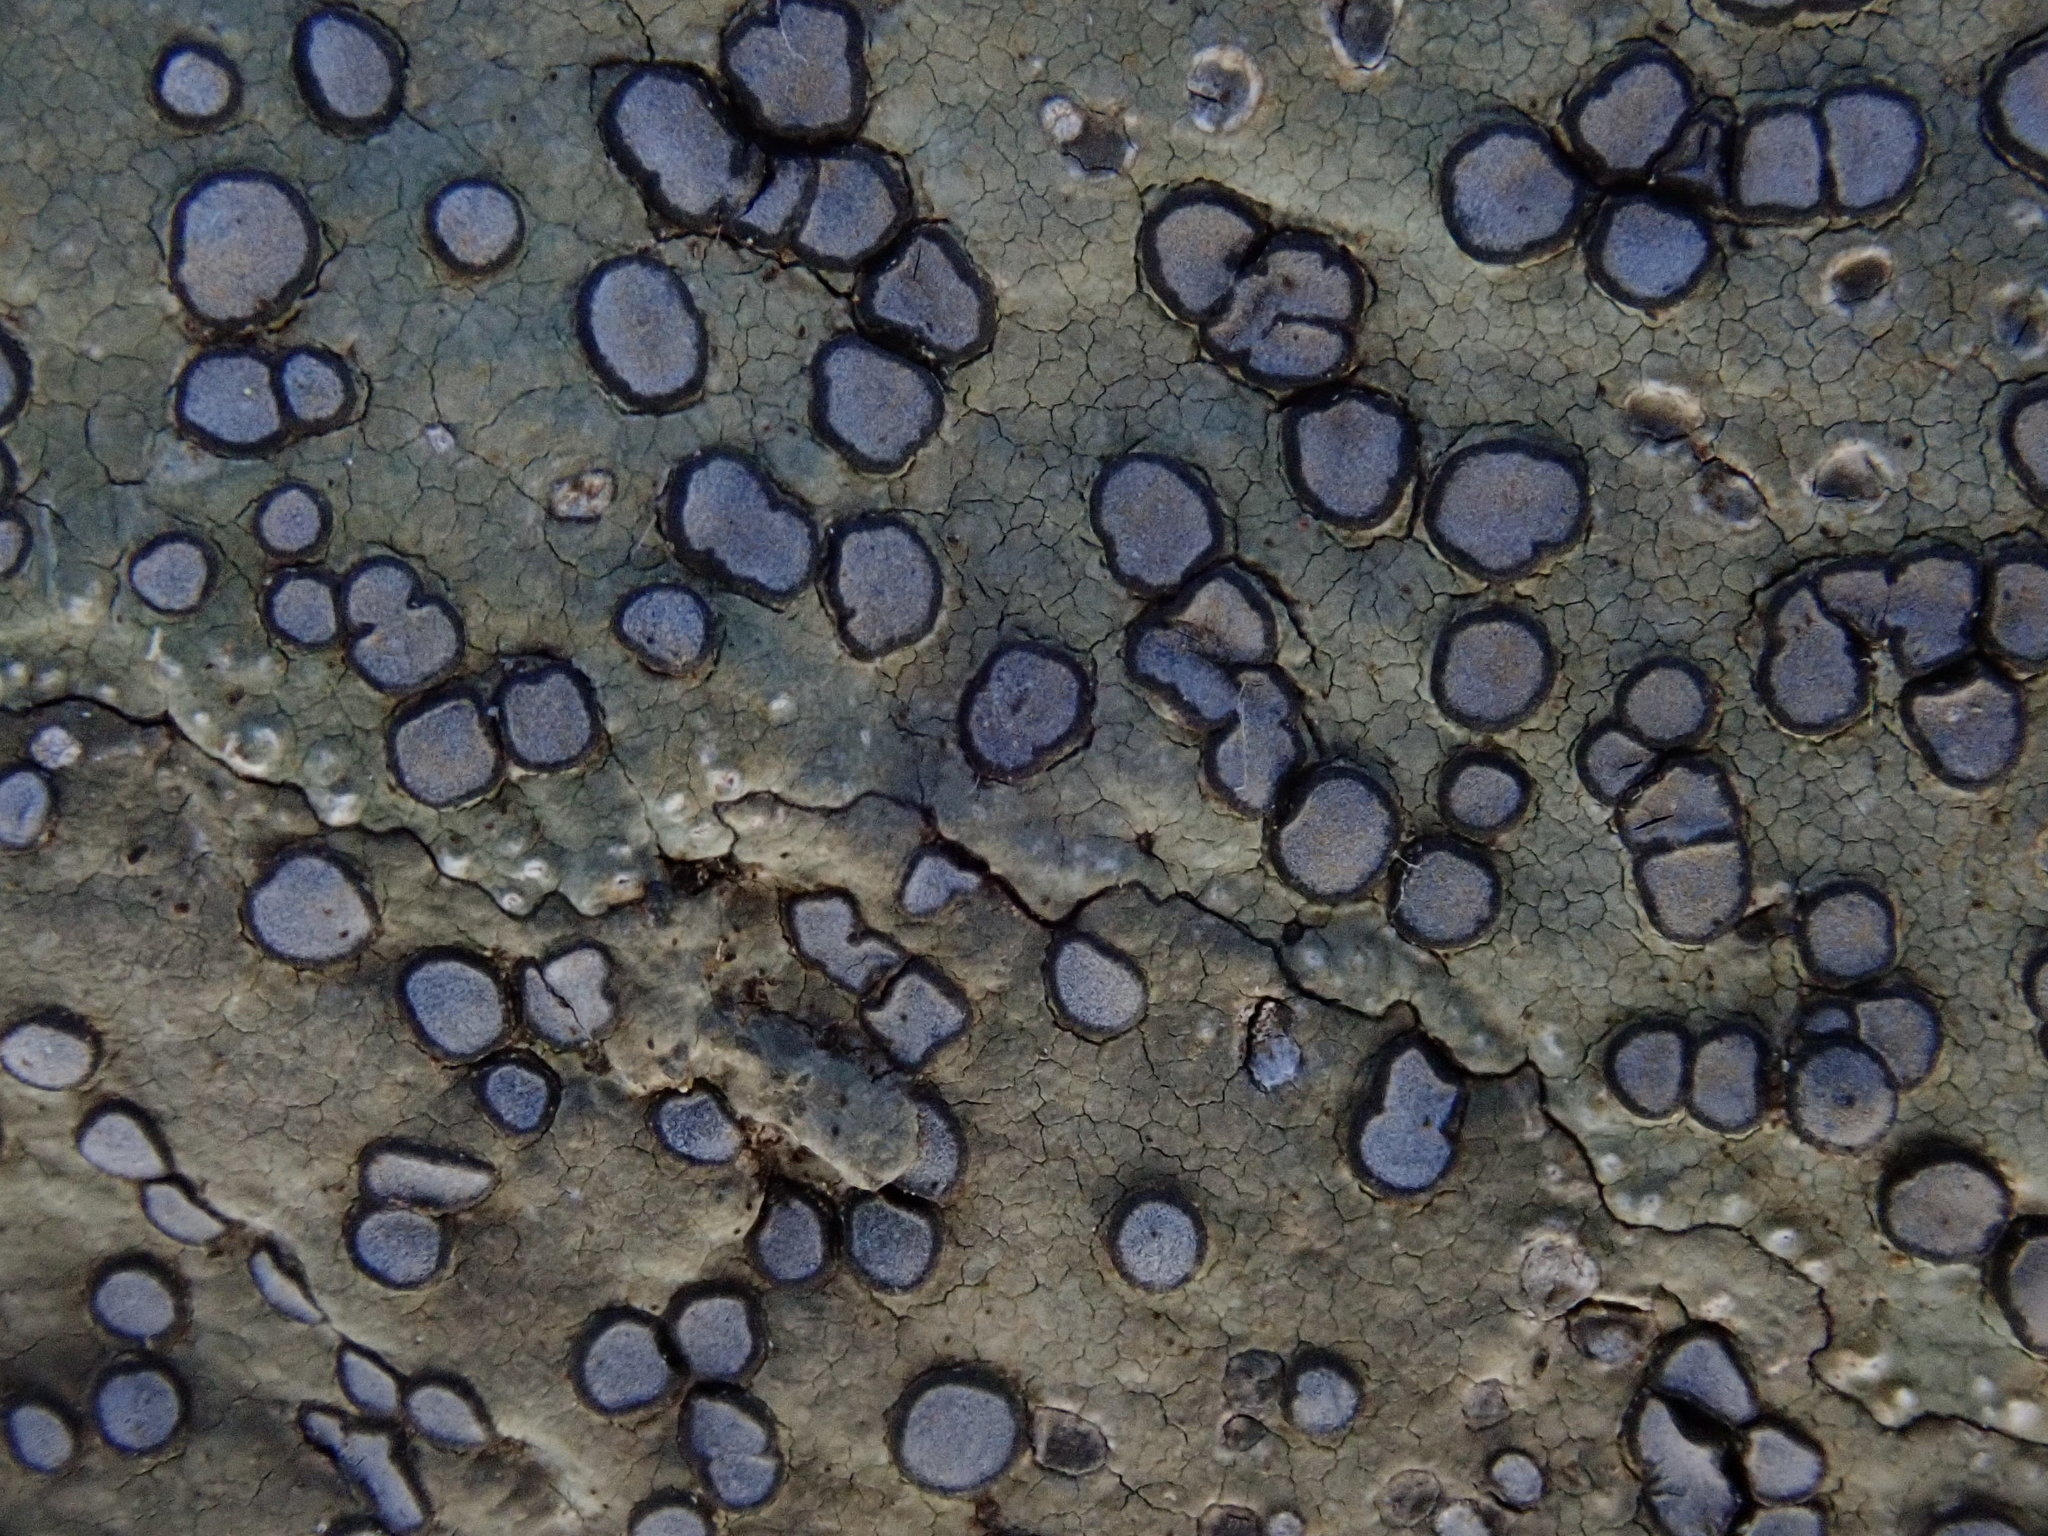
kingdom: Fungi
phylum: Ascomycota
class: Lecanoromycetes
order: Lecideales
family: Lecideaceae
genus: Porpidia
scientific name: Porpidia albocaerulescens
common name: Smokey-eyed boulder lichen
